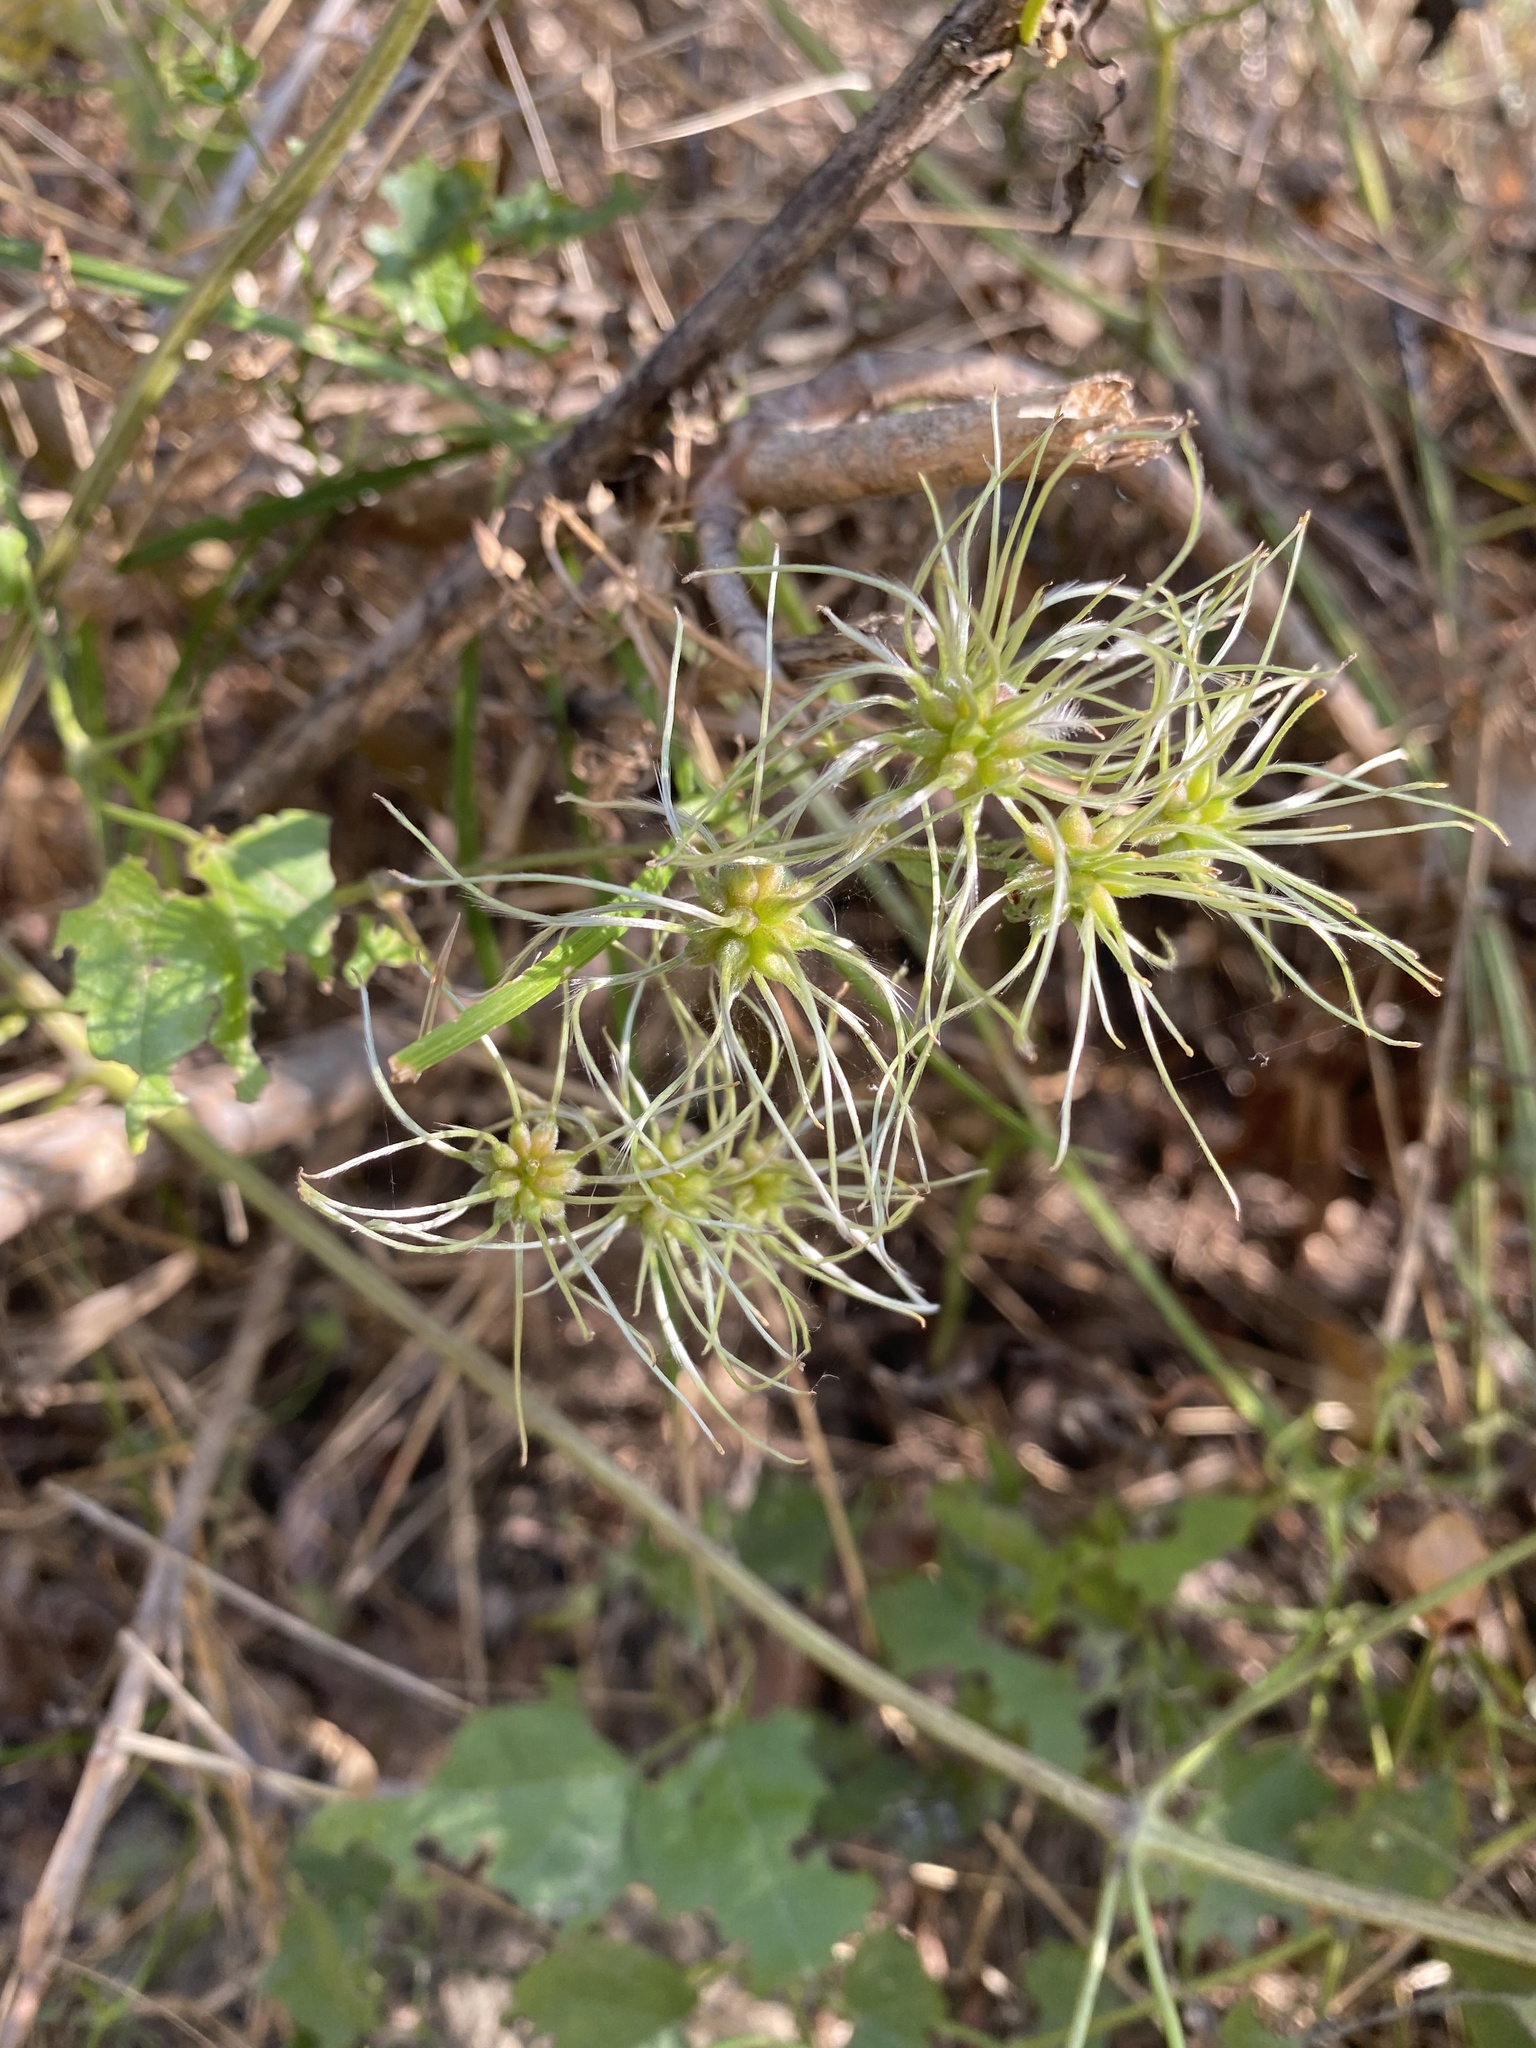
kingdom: Plantae
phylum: Tracheophyta
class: Magnoliopsida
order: Ranunculales
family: Ranunculaceae
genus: Clematis
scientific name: Clematis vitalba
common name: Evergreen clematis
